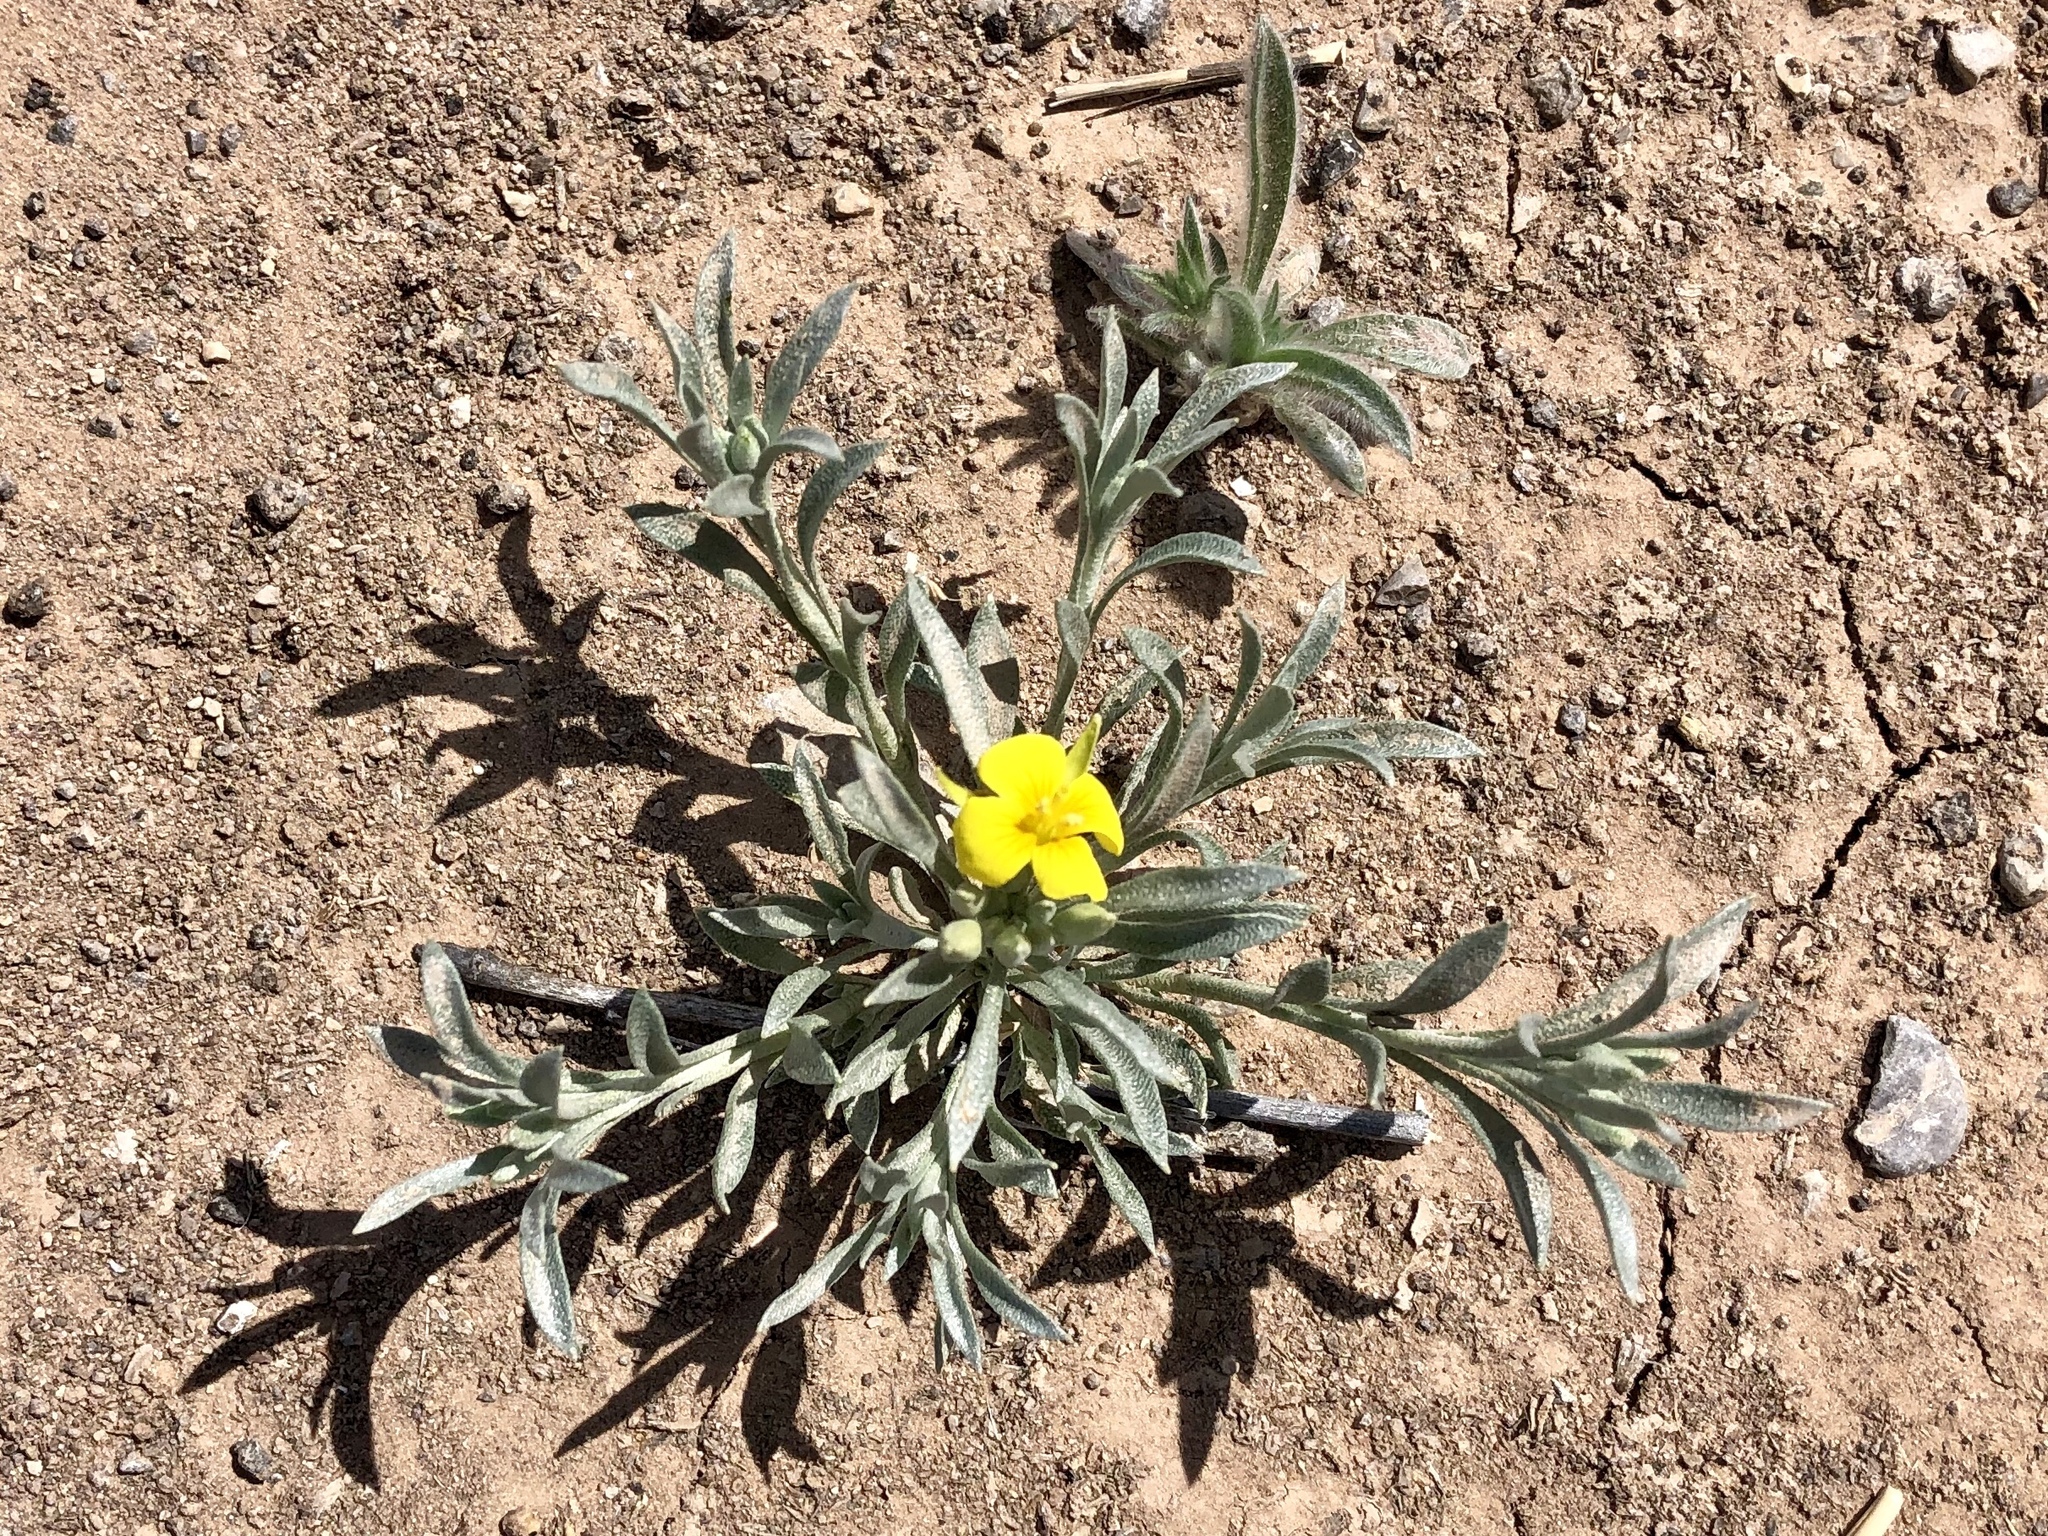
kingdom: Plantae
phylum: Tracheophyta
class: Magnoliopsida
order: Brassicales
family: Brassicaceae
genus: Physaria
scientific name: Physaria fendleri
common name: Fendler's bladderpod
